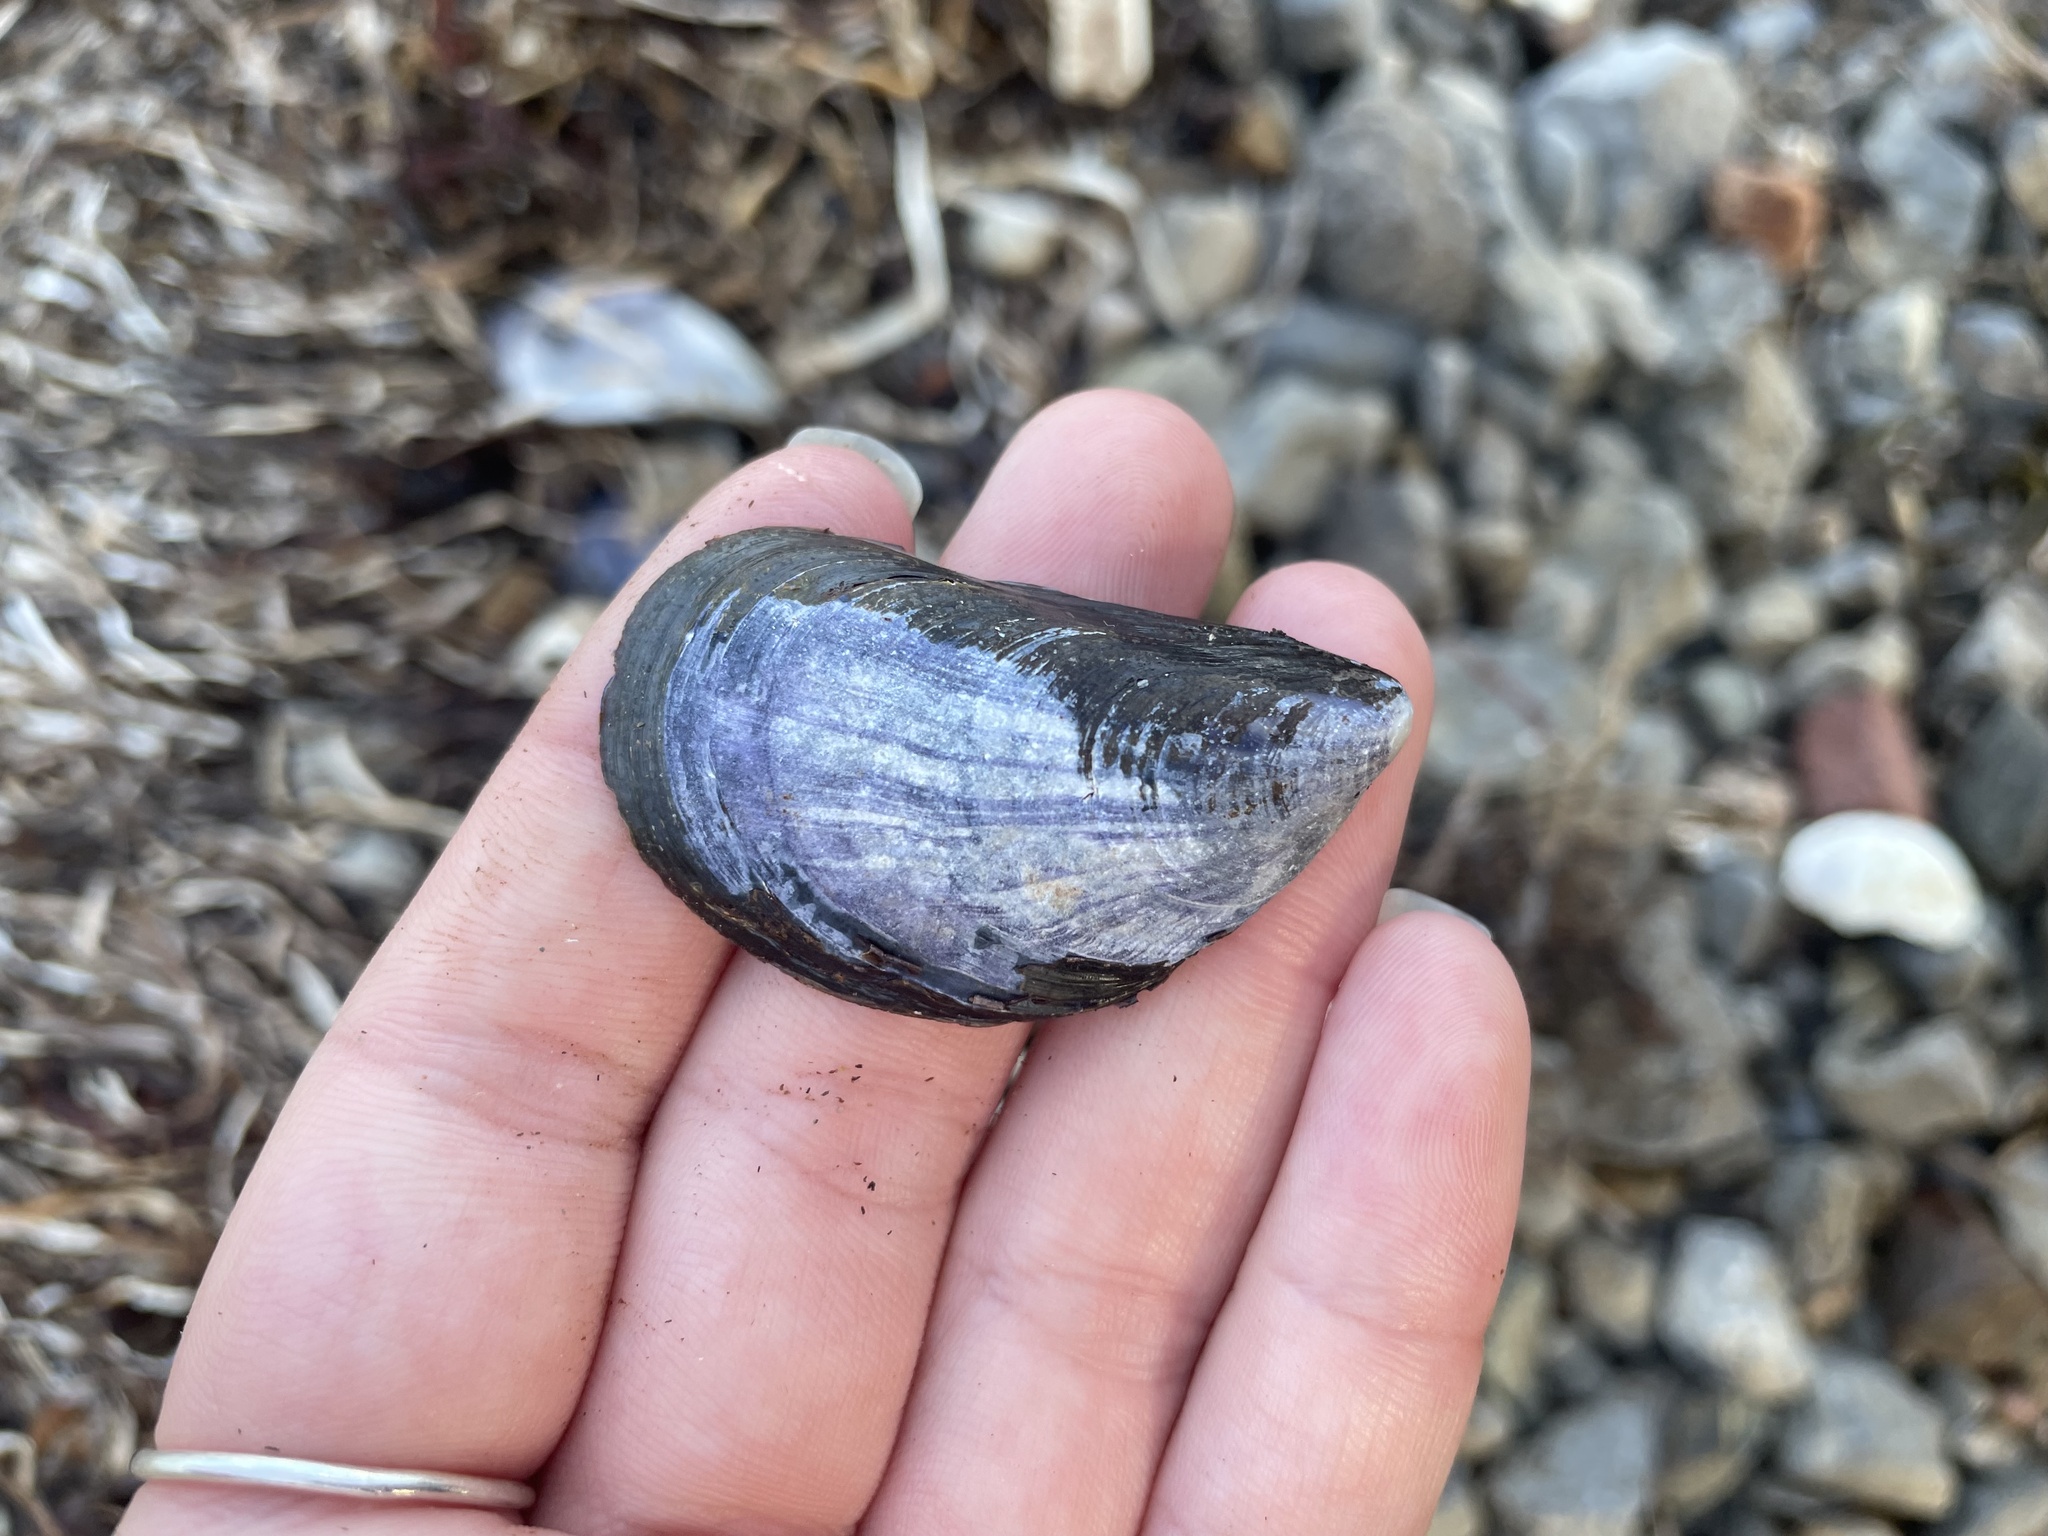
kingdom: Animalia
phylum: Mollusca
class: Bivalvia
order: Mytilida
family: Mytilidae
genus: Mytilus
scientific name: Mytilus
